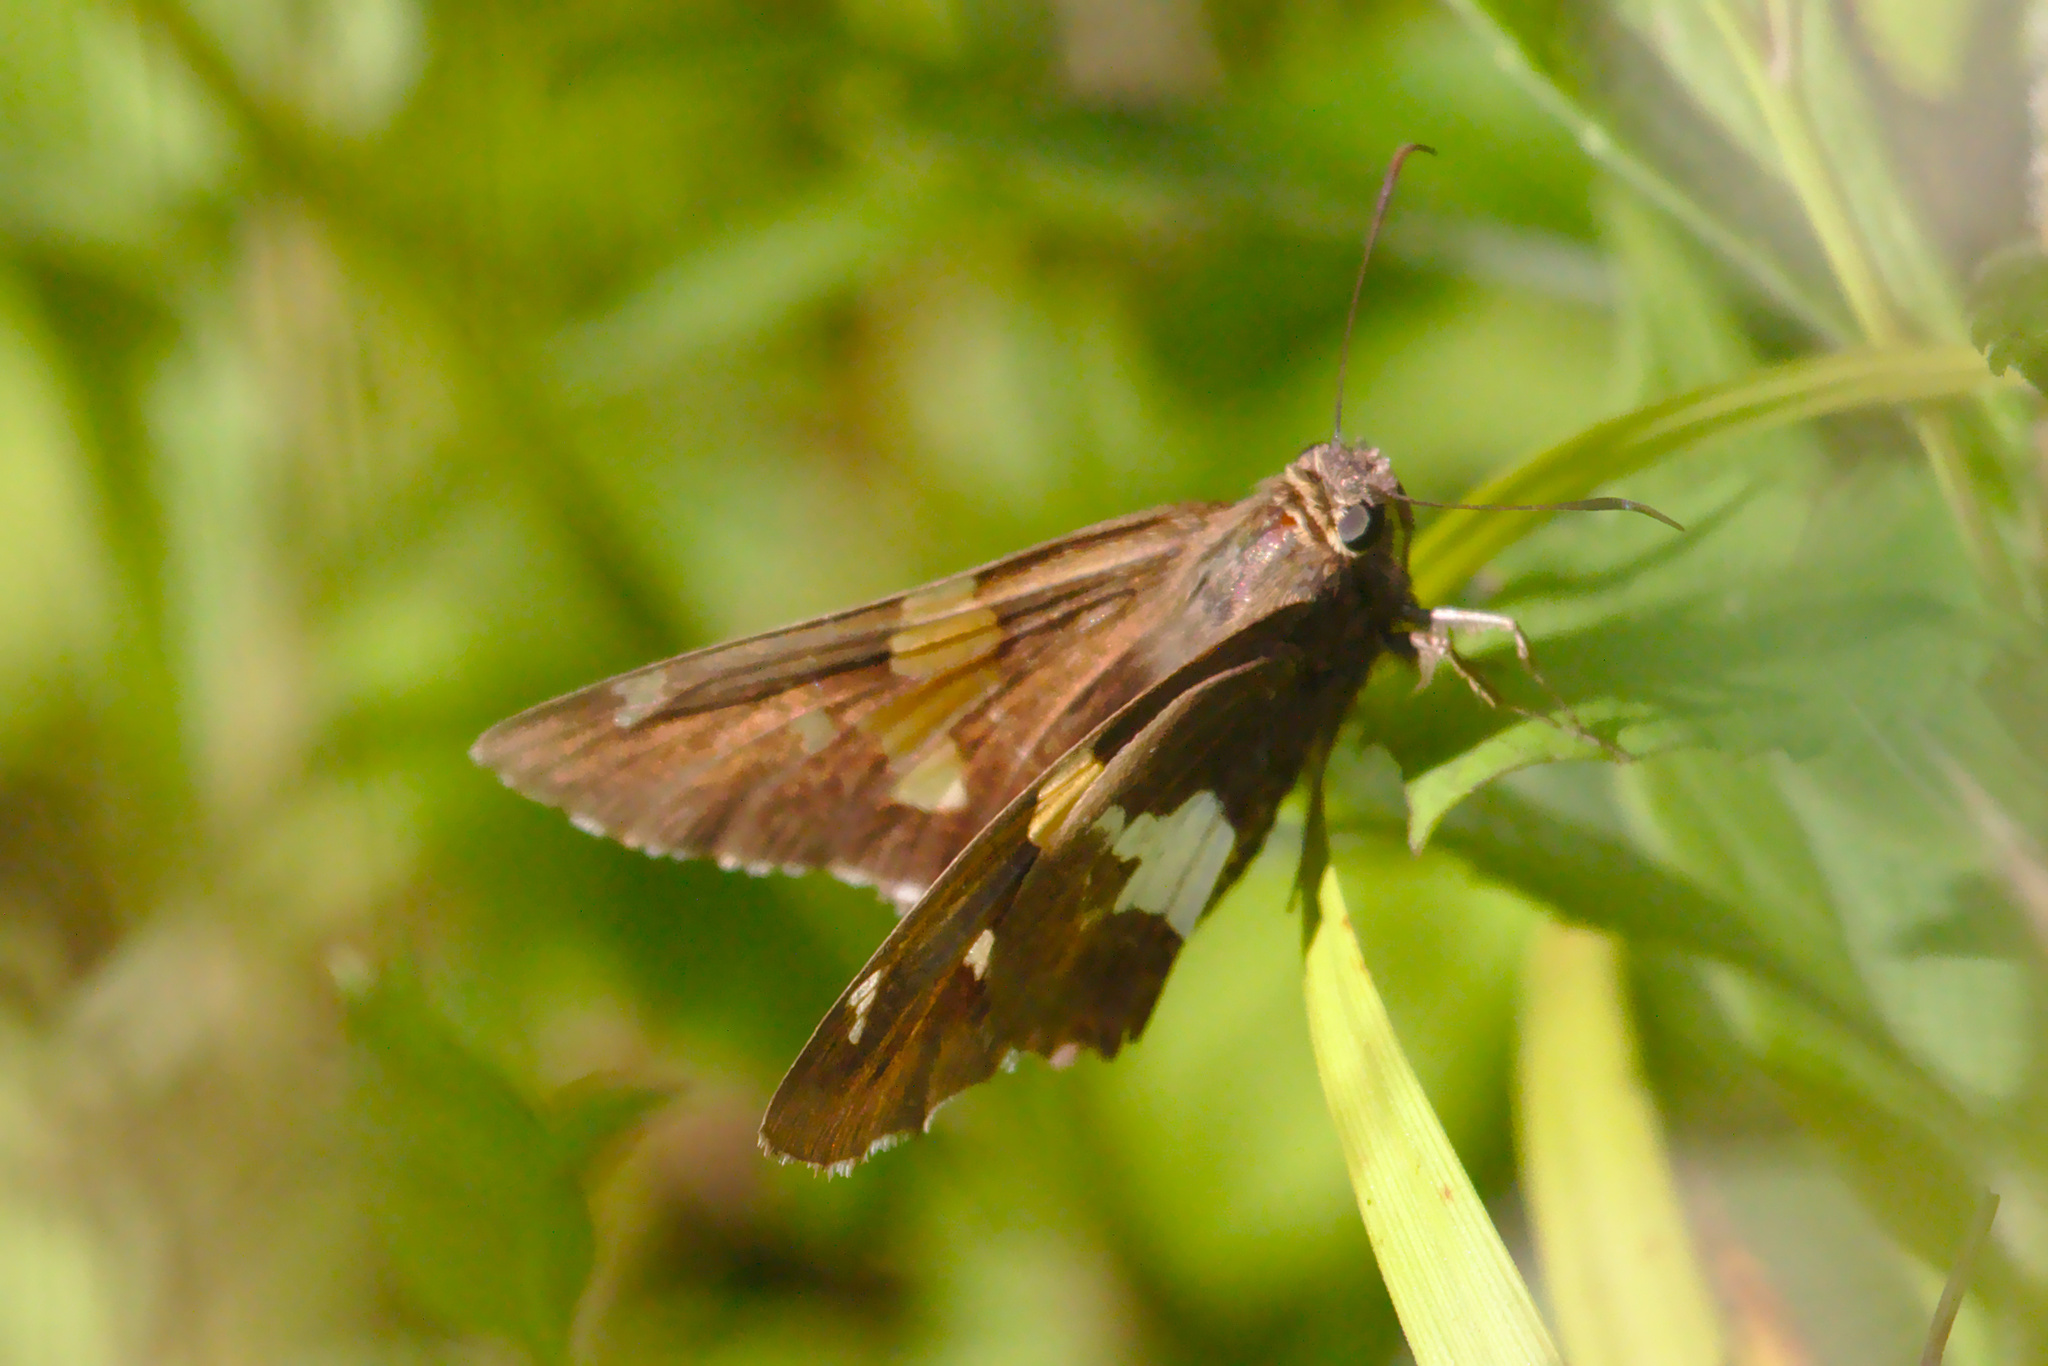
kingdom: Animalia
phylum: Arthropoda
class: Insecta
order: Lepidoptera
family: Hesperiidae
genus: Epargyreus
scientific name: Epargyreus clarus
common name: Silver-spotted skipper
